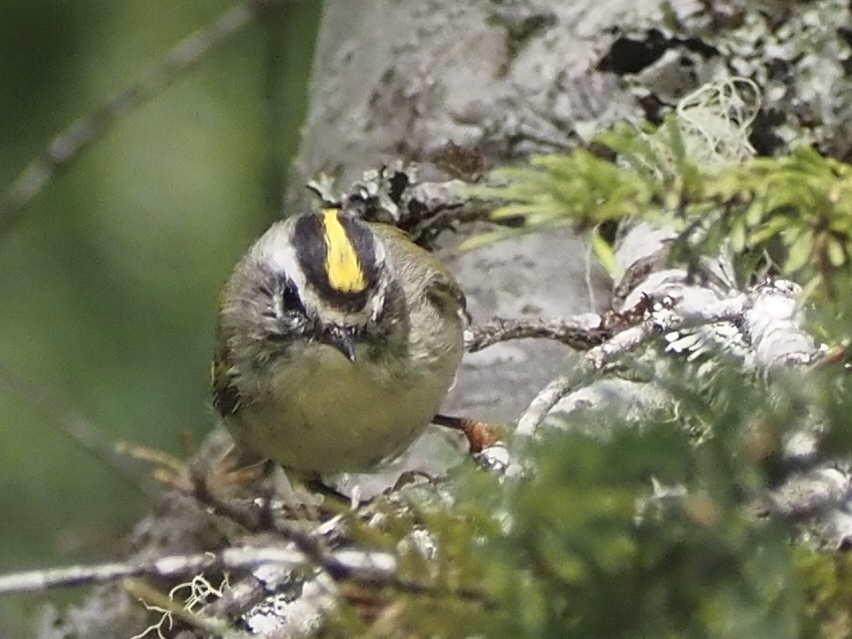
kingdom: Animalia
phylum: Chordata
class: Aves
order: Passeriformes
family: Regulidae
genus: Regulus
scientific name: Regulus satrapa
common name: Golden-crowned kinglet
